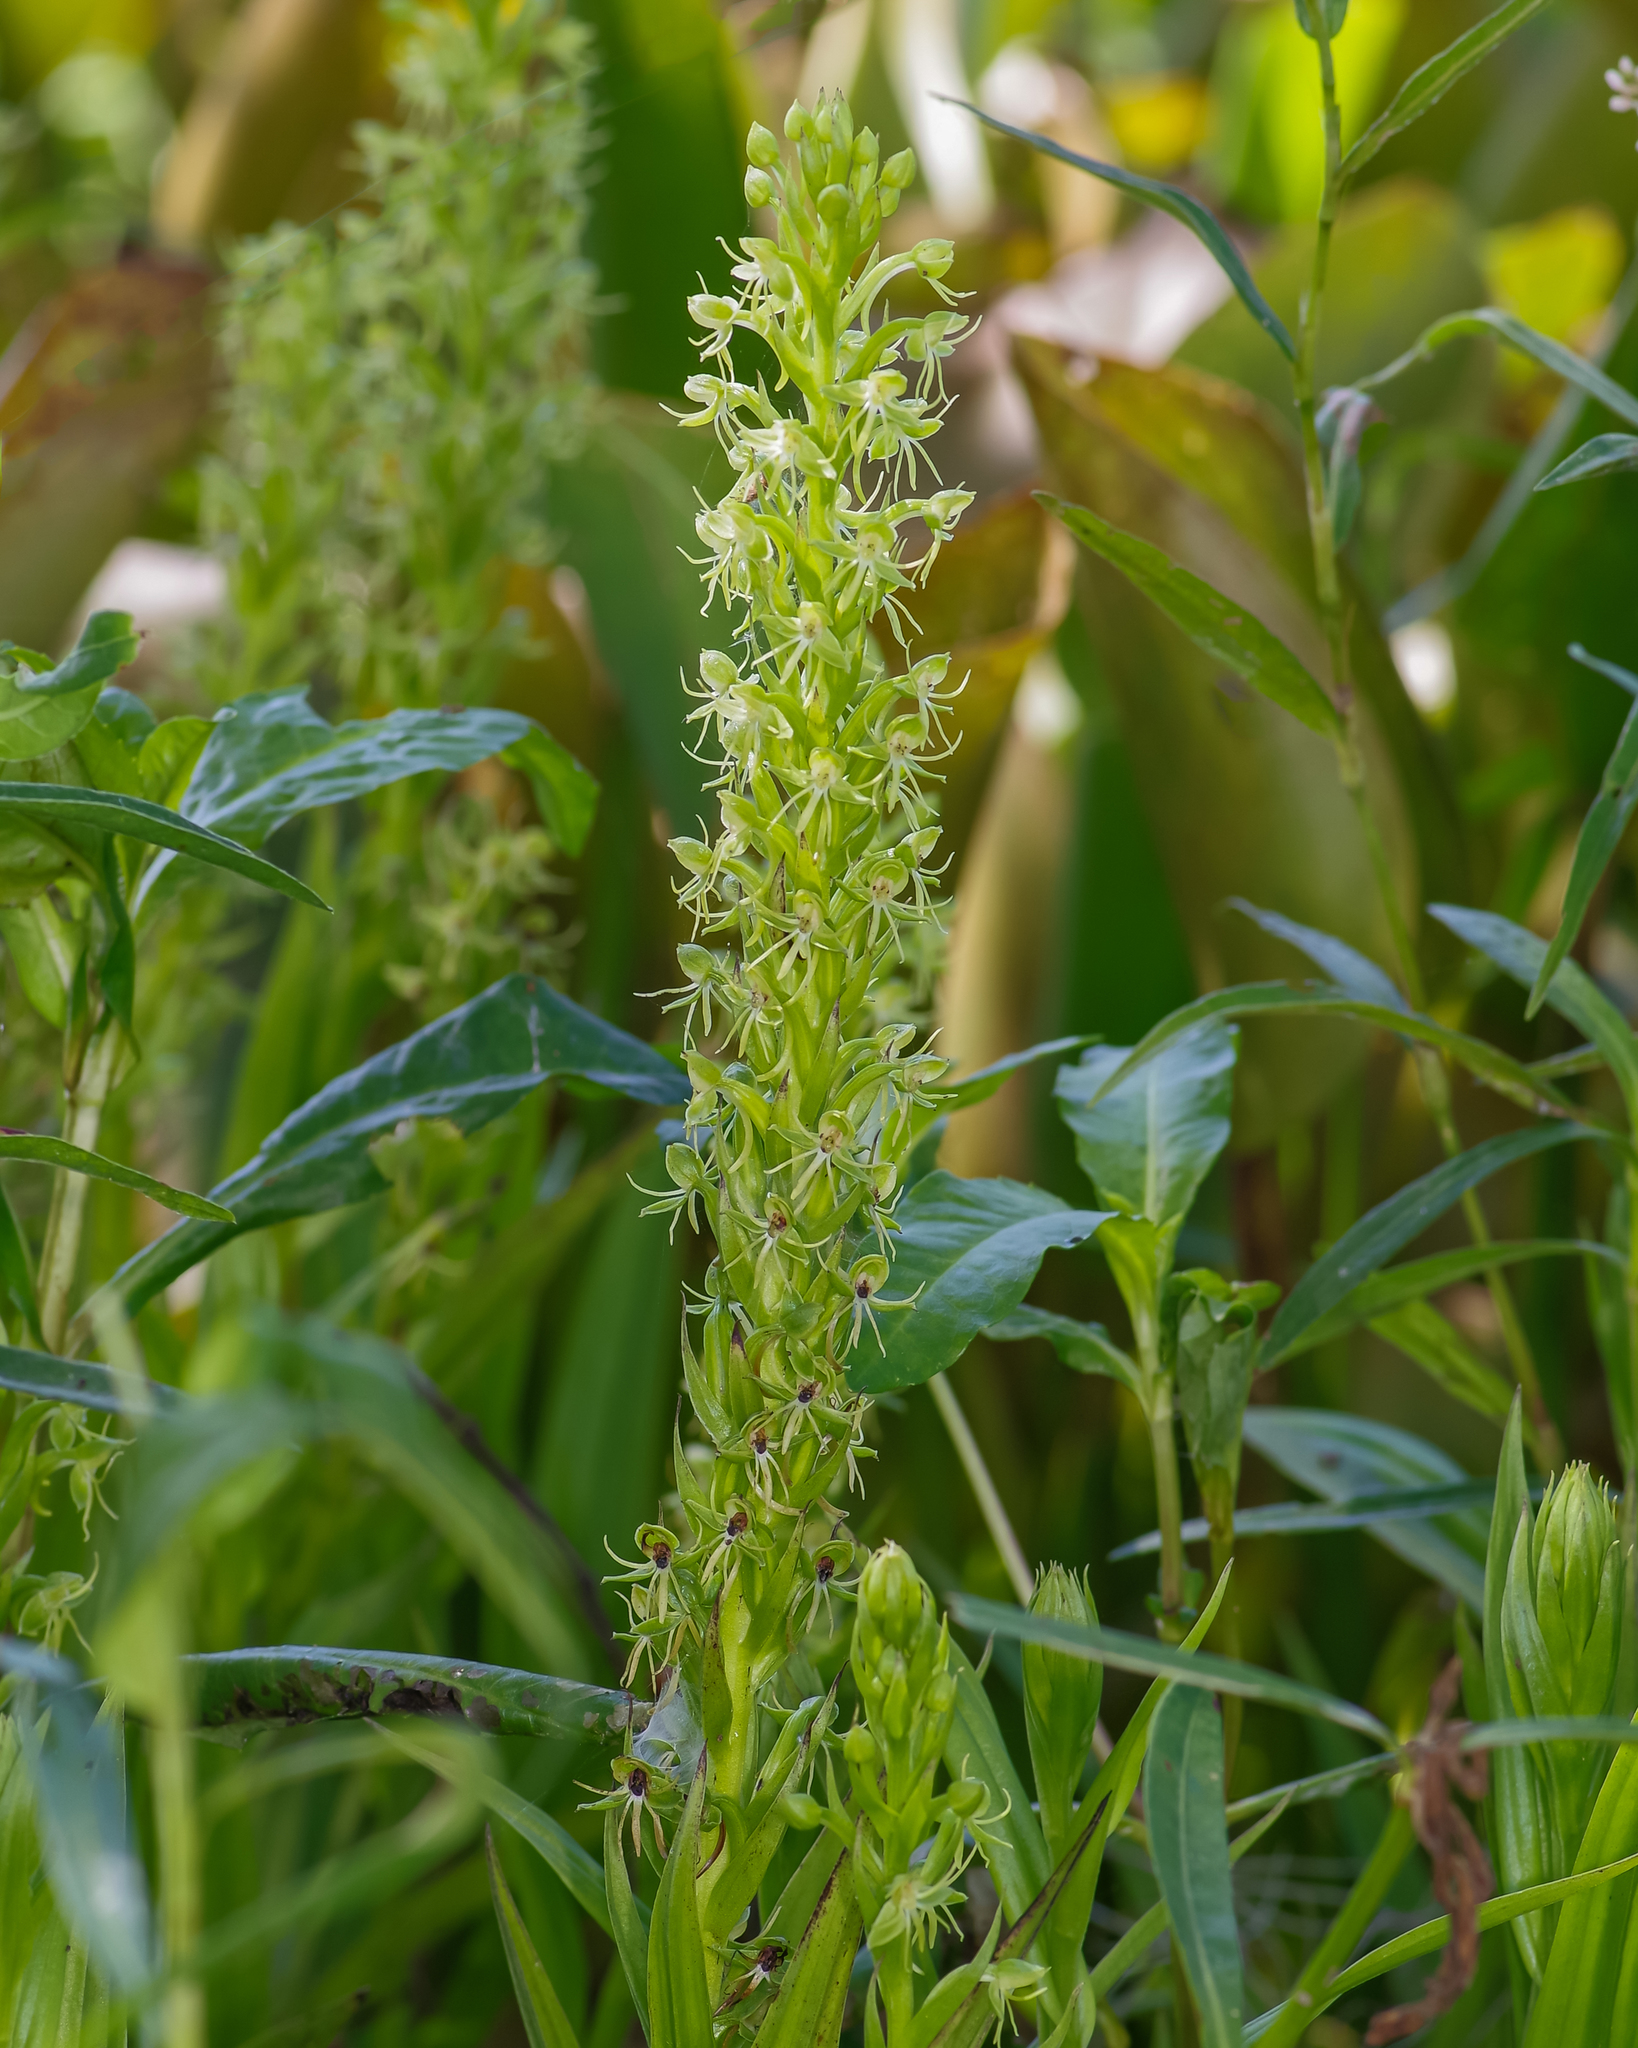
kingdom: Plantae
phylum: Tracheophyta
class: Liliopsida
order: Asparagales
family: Orchidaceae
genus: Habenaria
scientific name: Habenaria repens
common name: Water orchid
